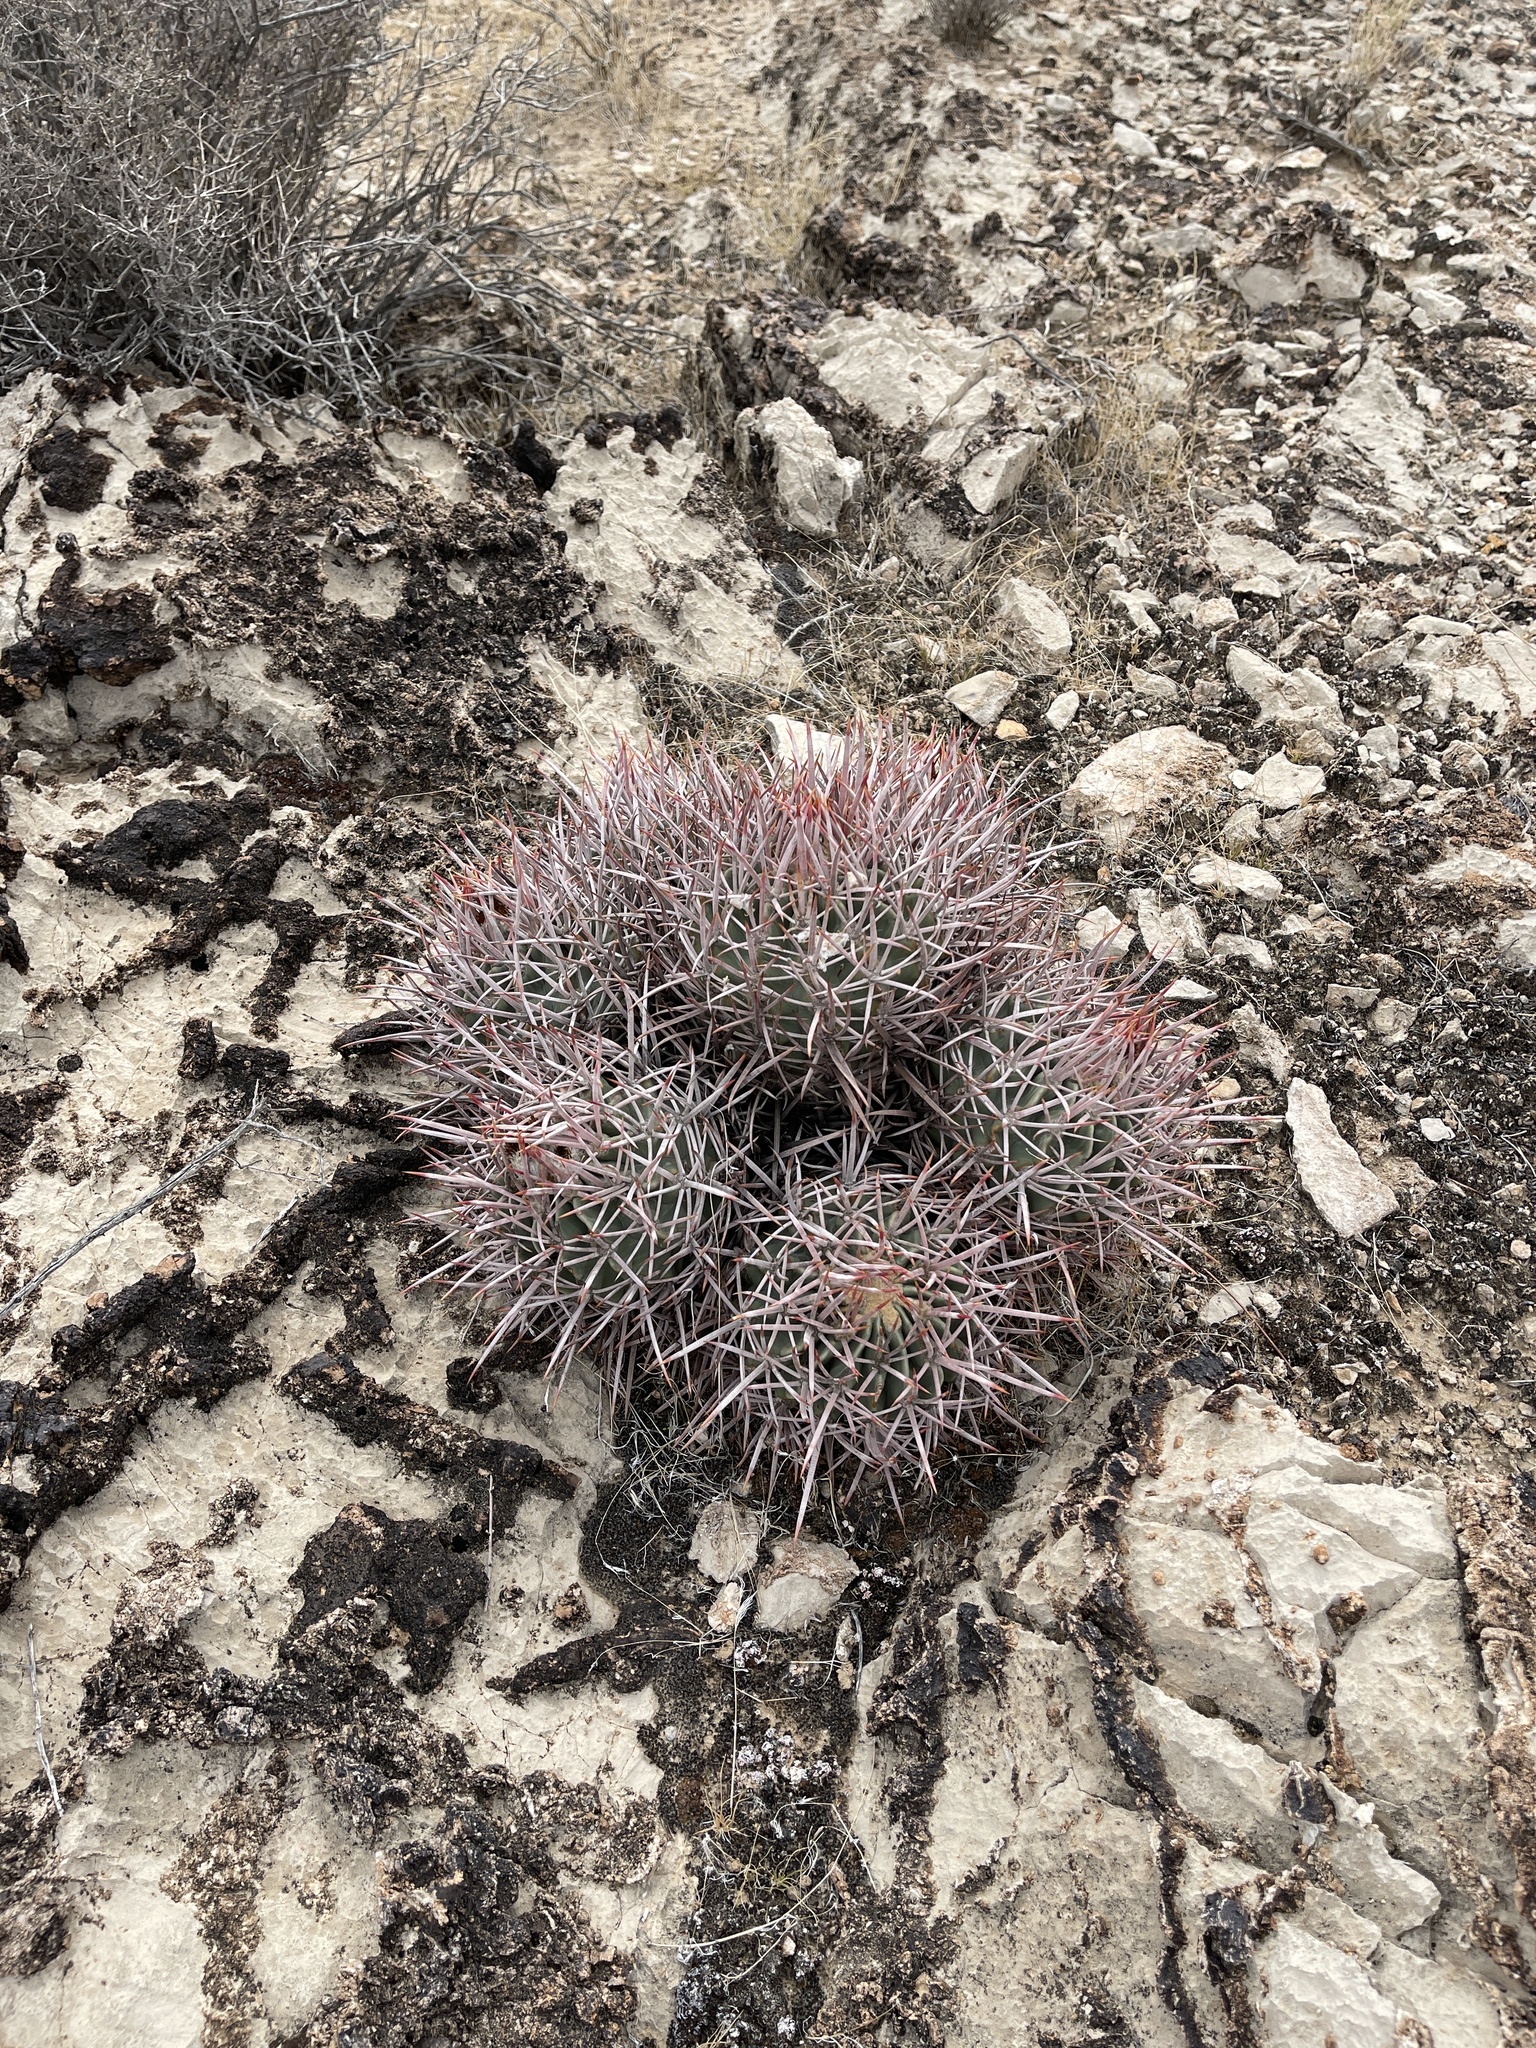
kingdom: Plantae
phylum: Tracheophyta
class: Magnoliopsida
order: Caryophyllales
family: Cactaceae
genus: Echinocactus
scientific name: Echinocactus polycephalus
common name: Cottontop cactus
